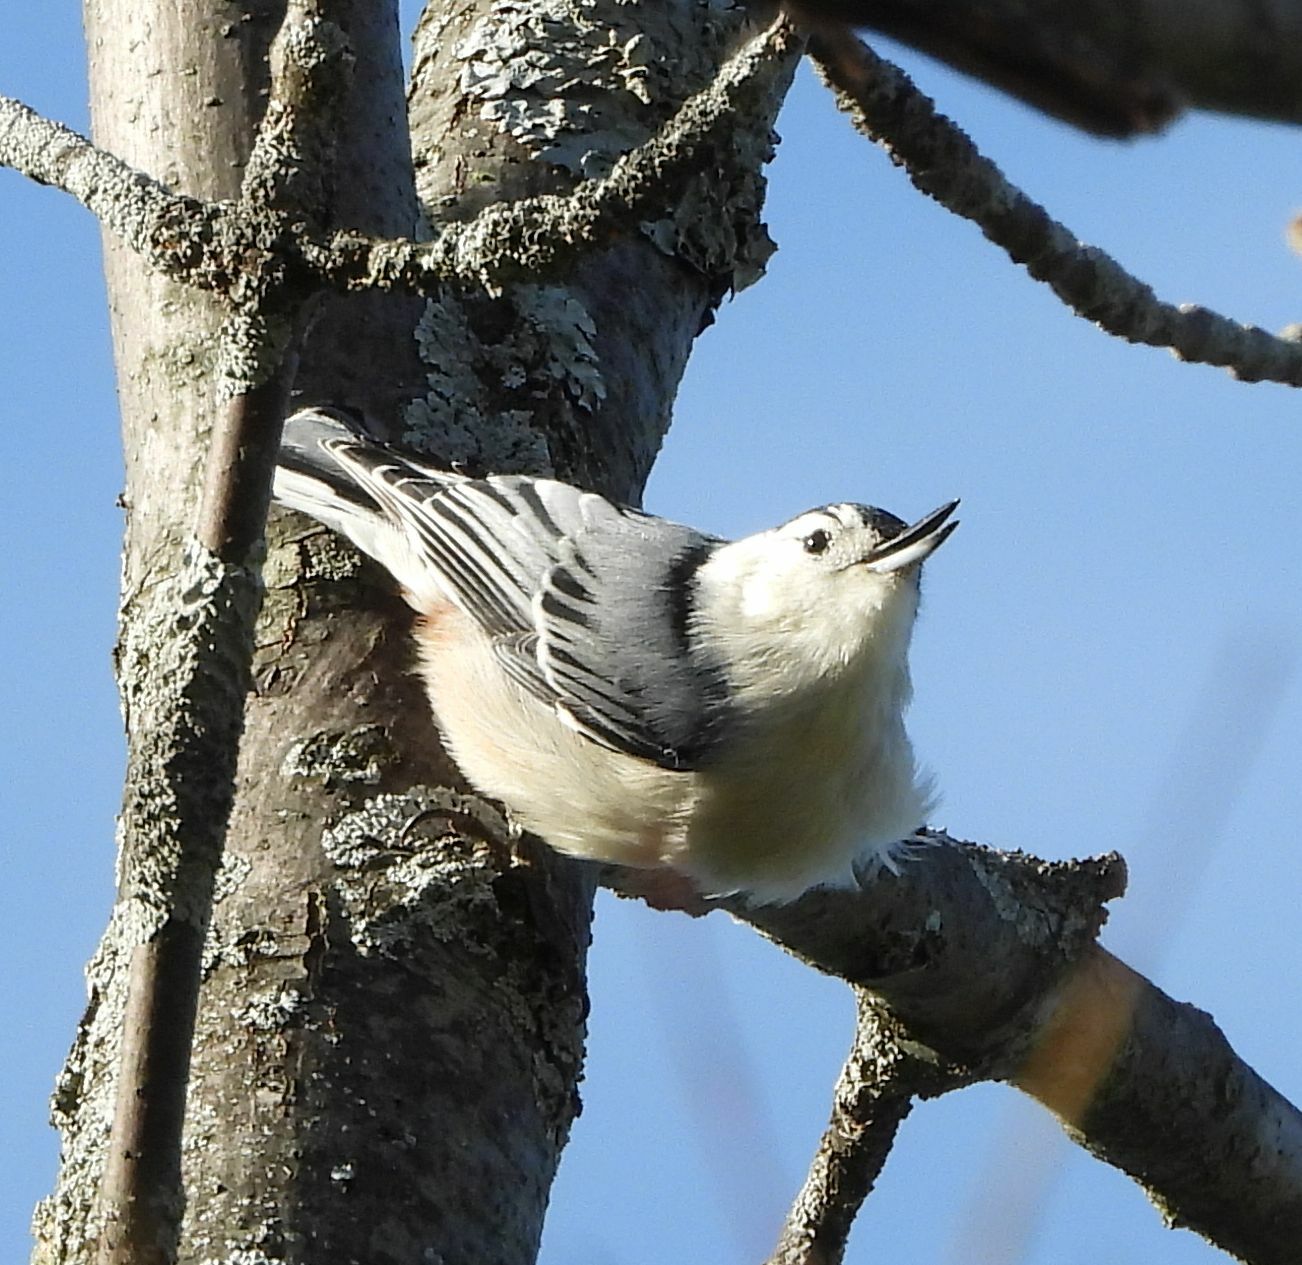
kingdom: Animalia
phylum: Chordata
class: Aves
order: Passeriformes
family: Sittidae
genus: Sitta
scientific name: Sitta carolinensis
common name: White-breasted nuthatch
